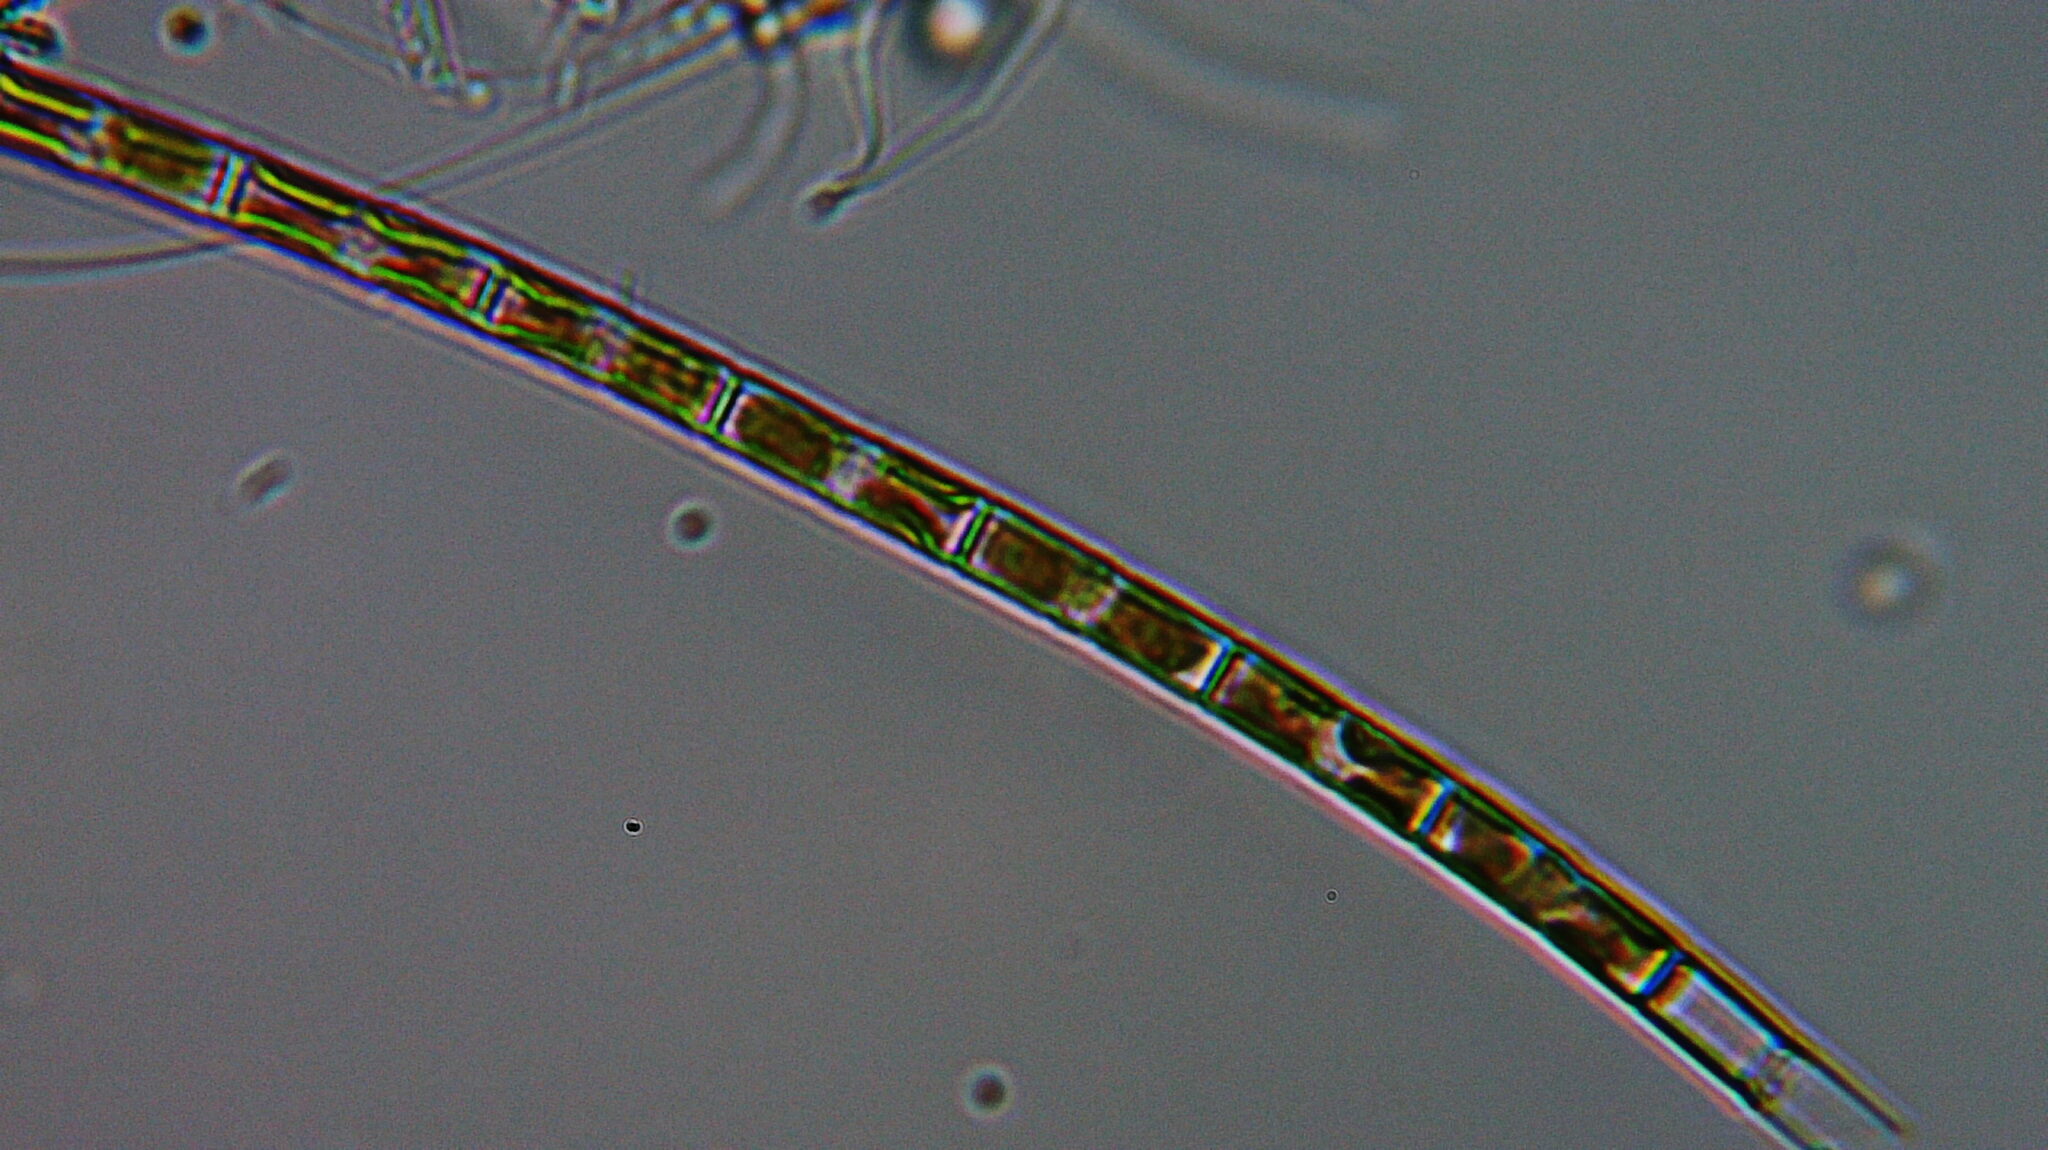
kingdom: Chromista
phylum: Ochrophyta
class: Bacillariophyceae
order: Aulacoseirales
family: Aulacoseiraceae
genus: Aulacoseira
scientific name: Aulacoseira
